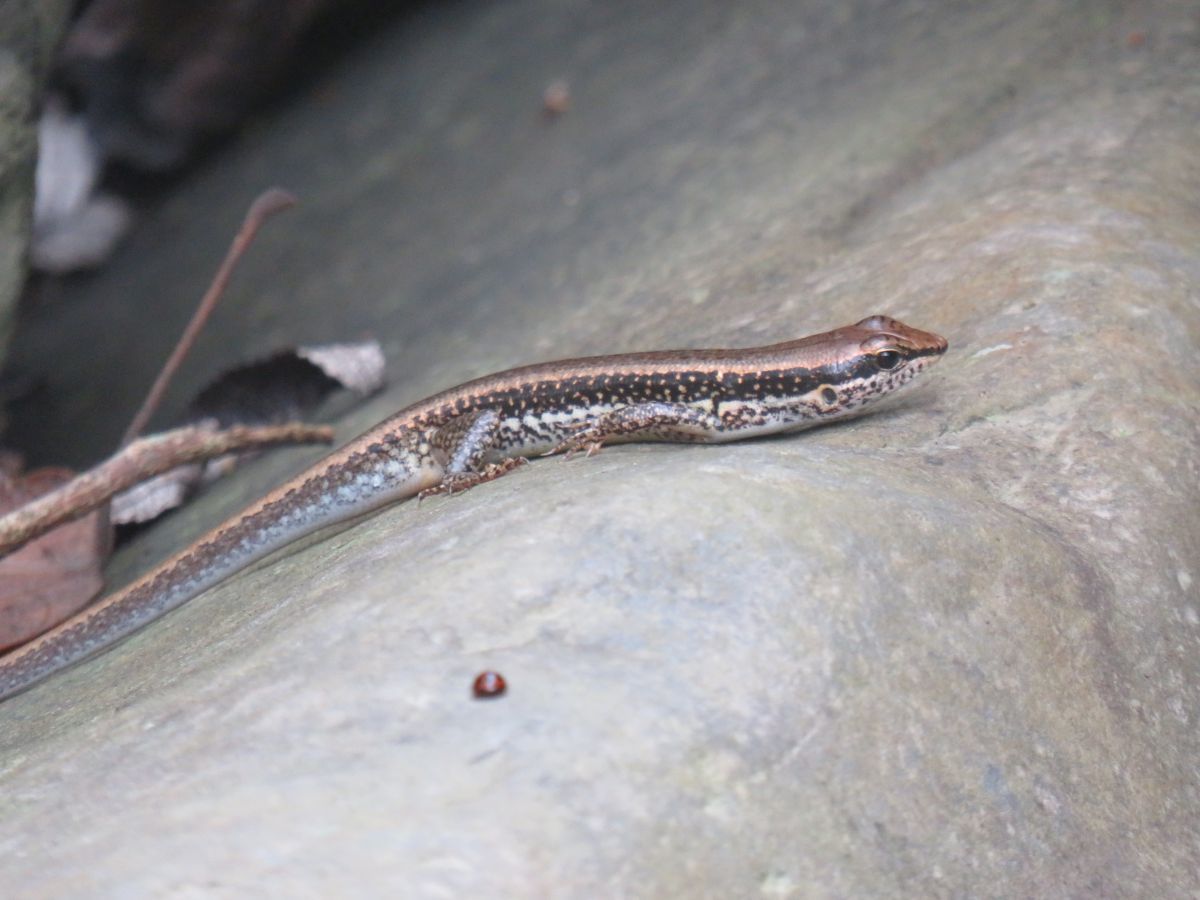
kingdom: Animalia
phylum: Chordata
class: Squamata
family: Scincidae
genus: Sphenomorphus
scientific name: Sphenomorphus indicus
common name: Himalayan forest skink
